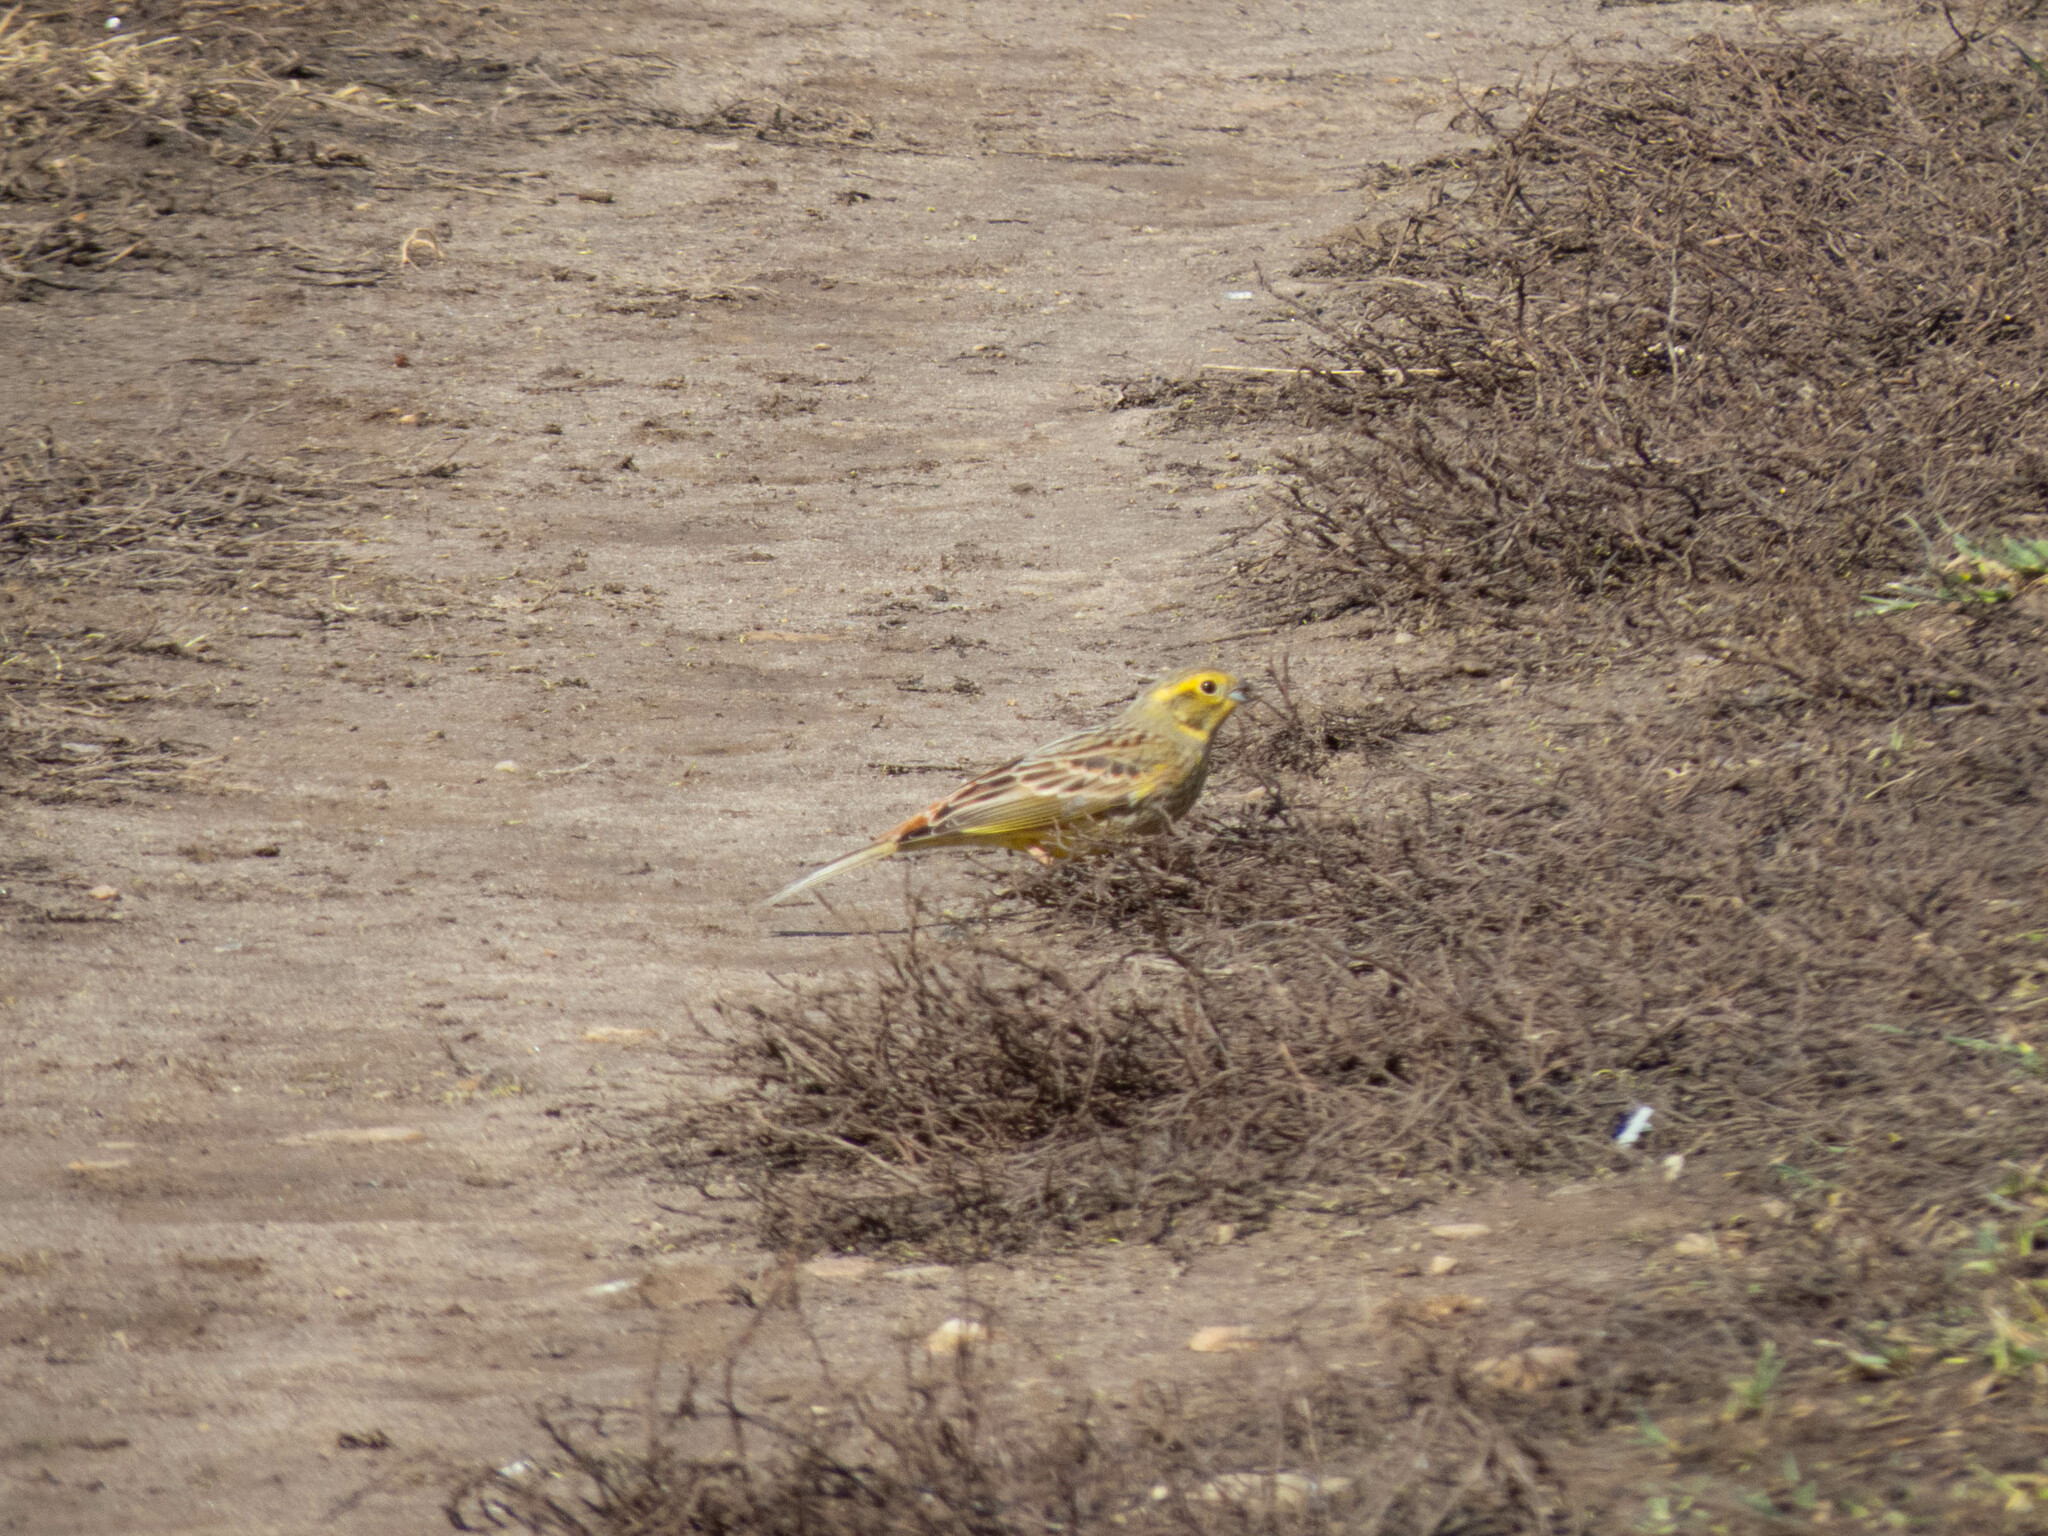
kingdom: Animalia
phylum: Chordata
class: Aves
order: Passeriformes
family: Emberizidae
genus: Emberiza
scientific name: Emberiza citrinella
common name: Yellowhammer
